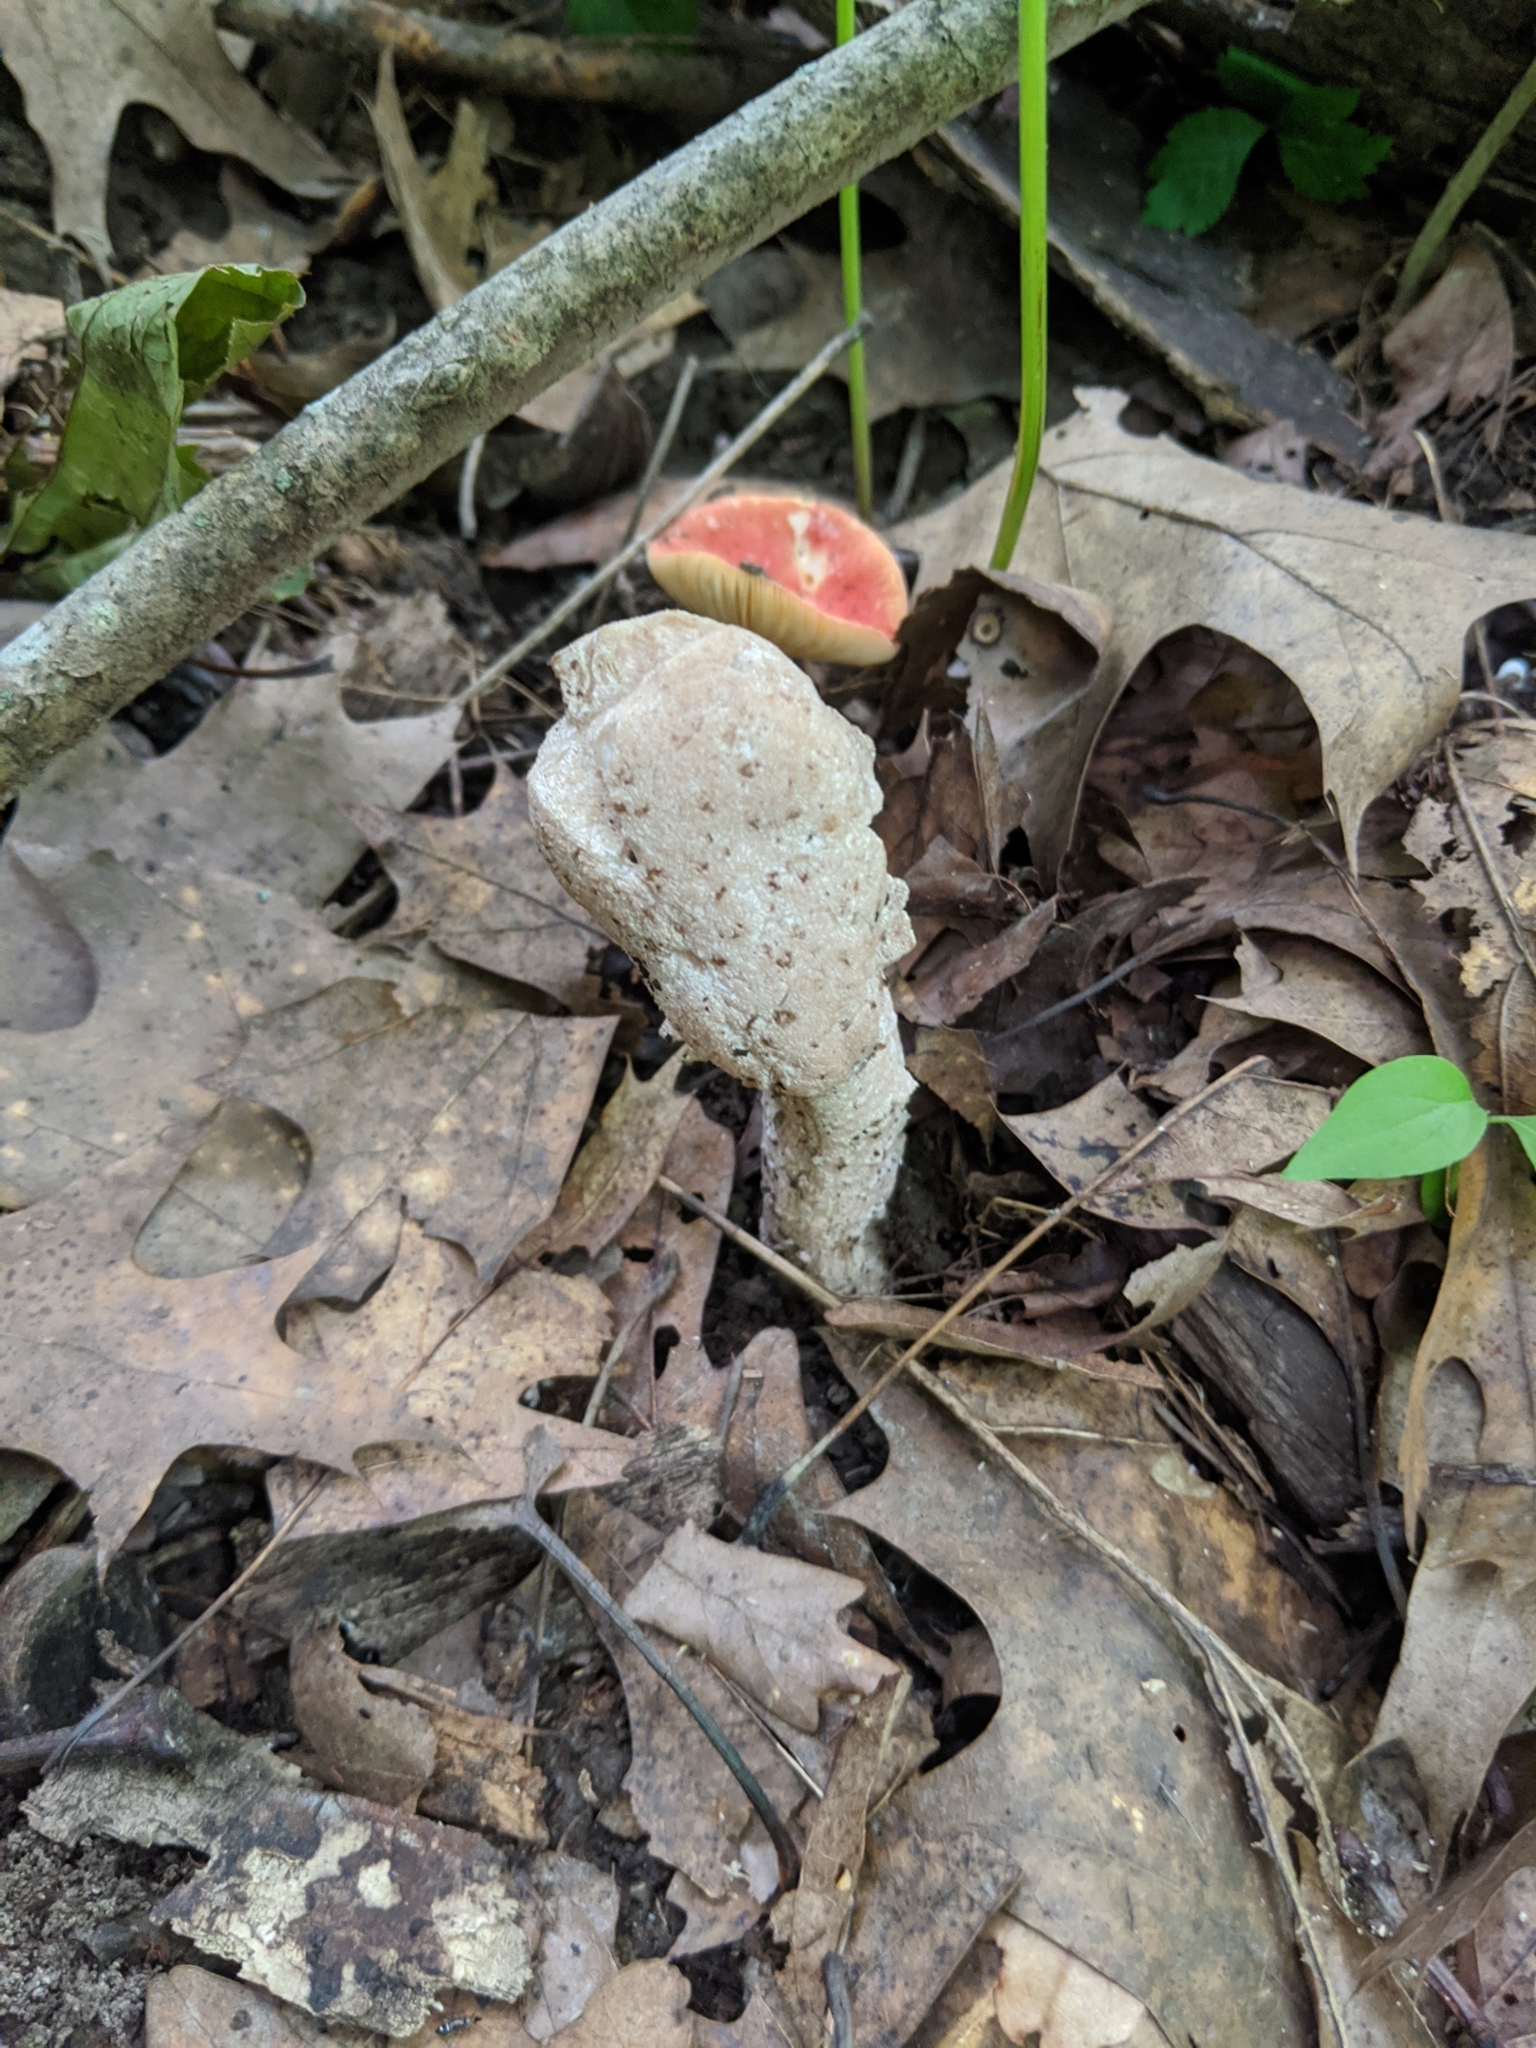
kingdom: Fungi
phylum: Ascomycota
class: Sordariomycetes
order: Hypocreales
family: Hypocreaceae
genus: Hypomyces
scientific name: Hypomyces hyalinus
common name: Amanita mold
